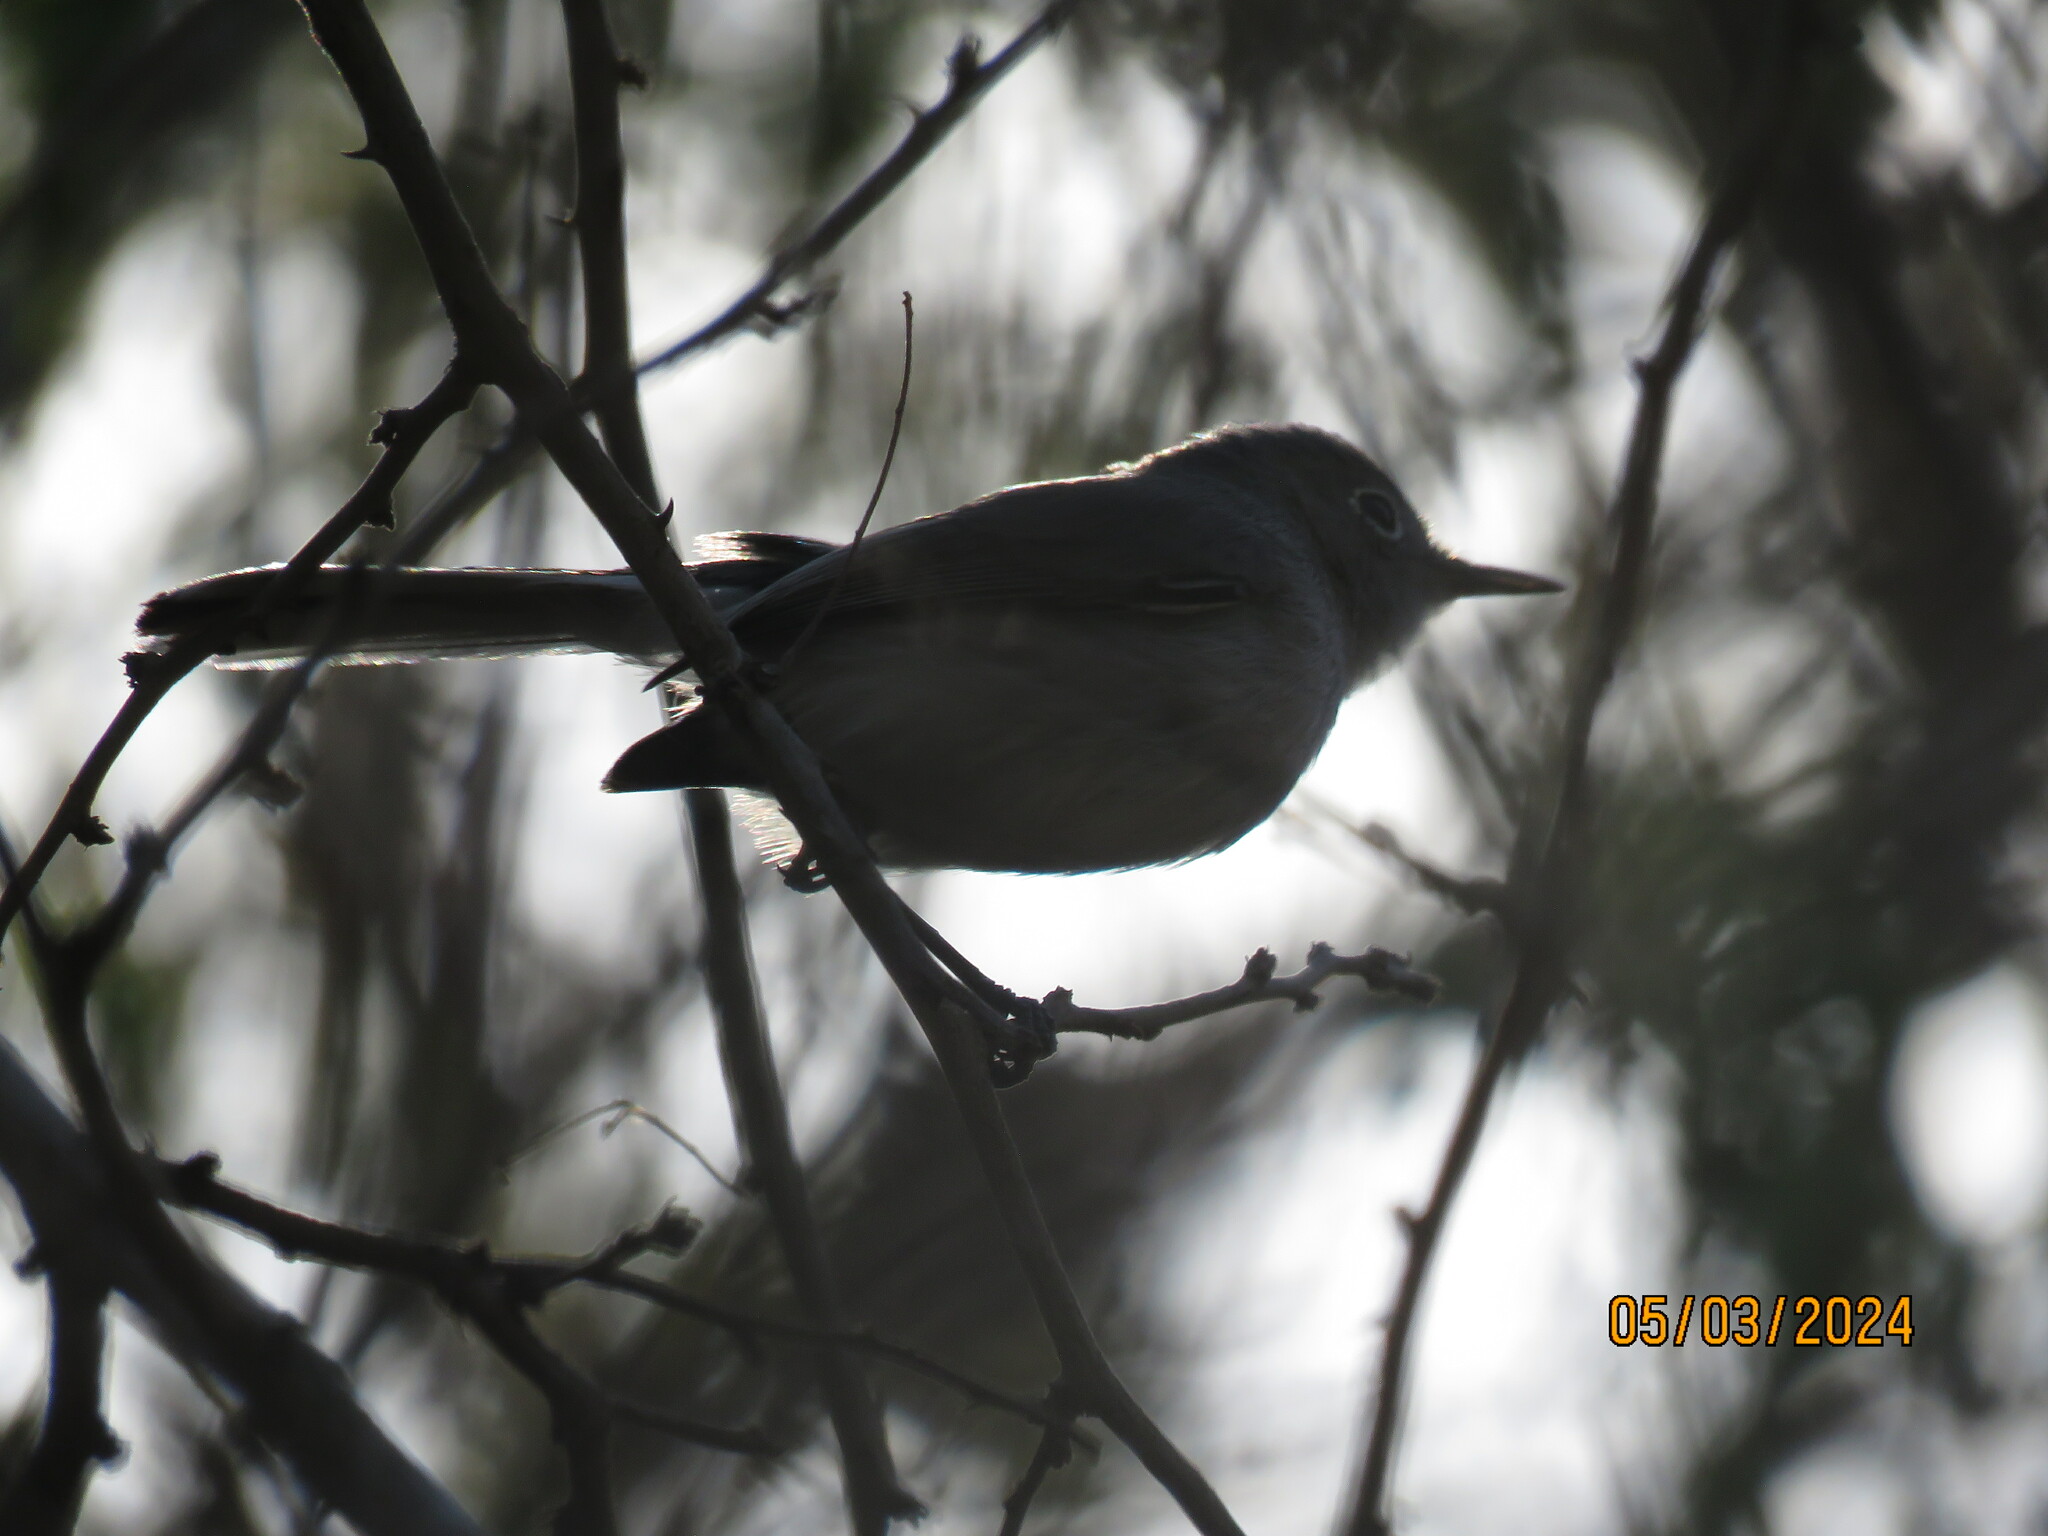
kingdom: Animalia
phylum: Chordata
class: Aves
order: Passeriformes
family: Polioptilidae
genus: Polioptila
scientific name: Polioptila caerulea
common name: Blue-gray gnatcatcher
